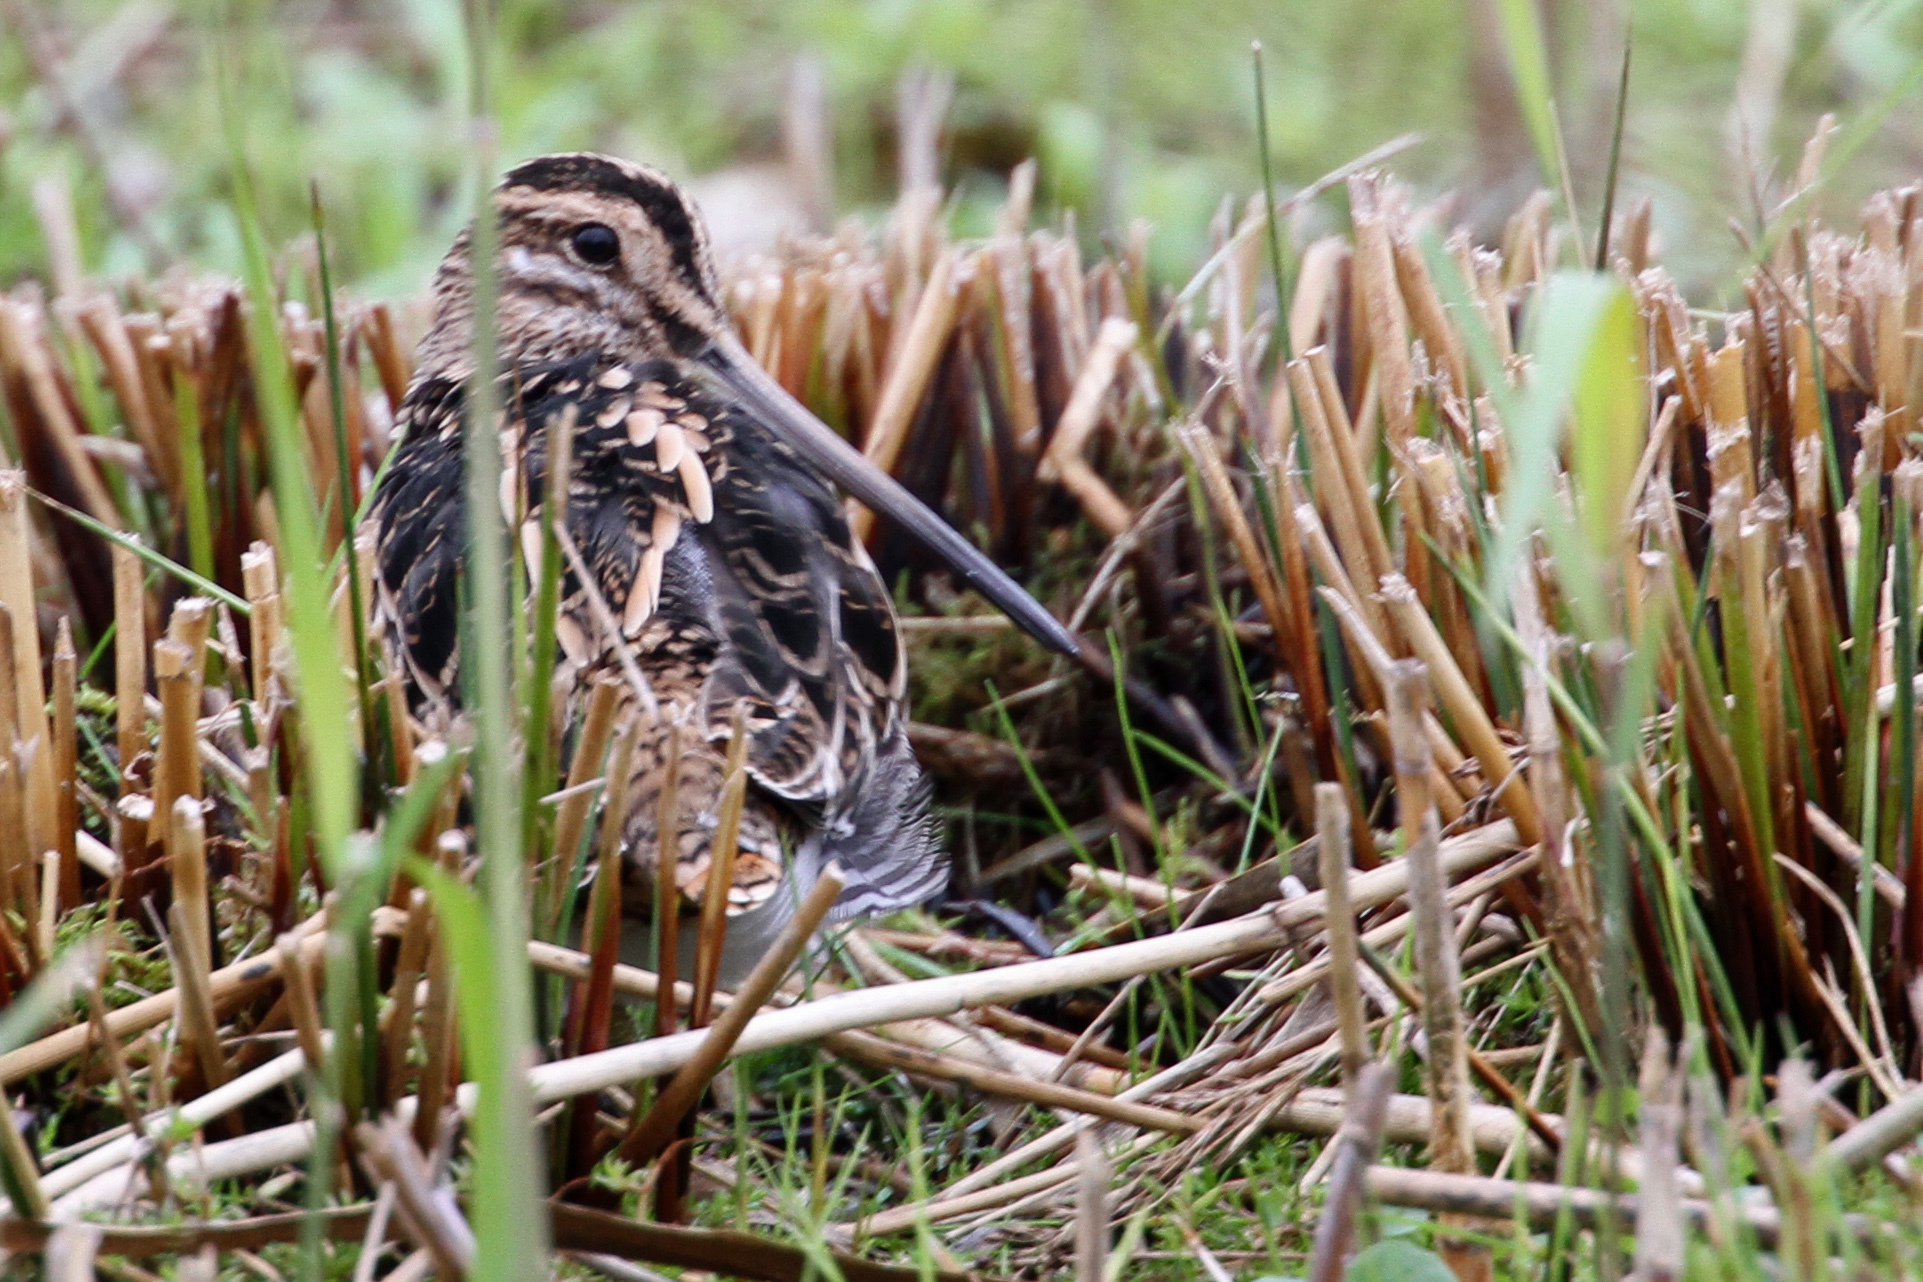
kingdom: Animalia
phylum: Chordata
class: Aves
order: Charadriiformes
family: Scolopacidae
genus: Gallinago
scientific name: Gallinago gallinago
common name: Common snipe
